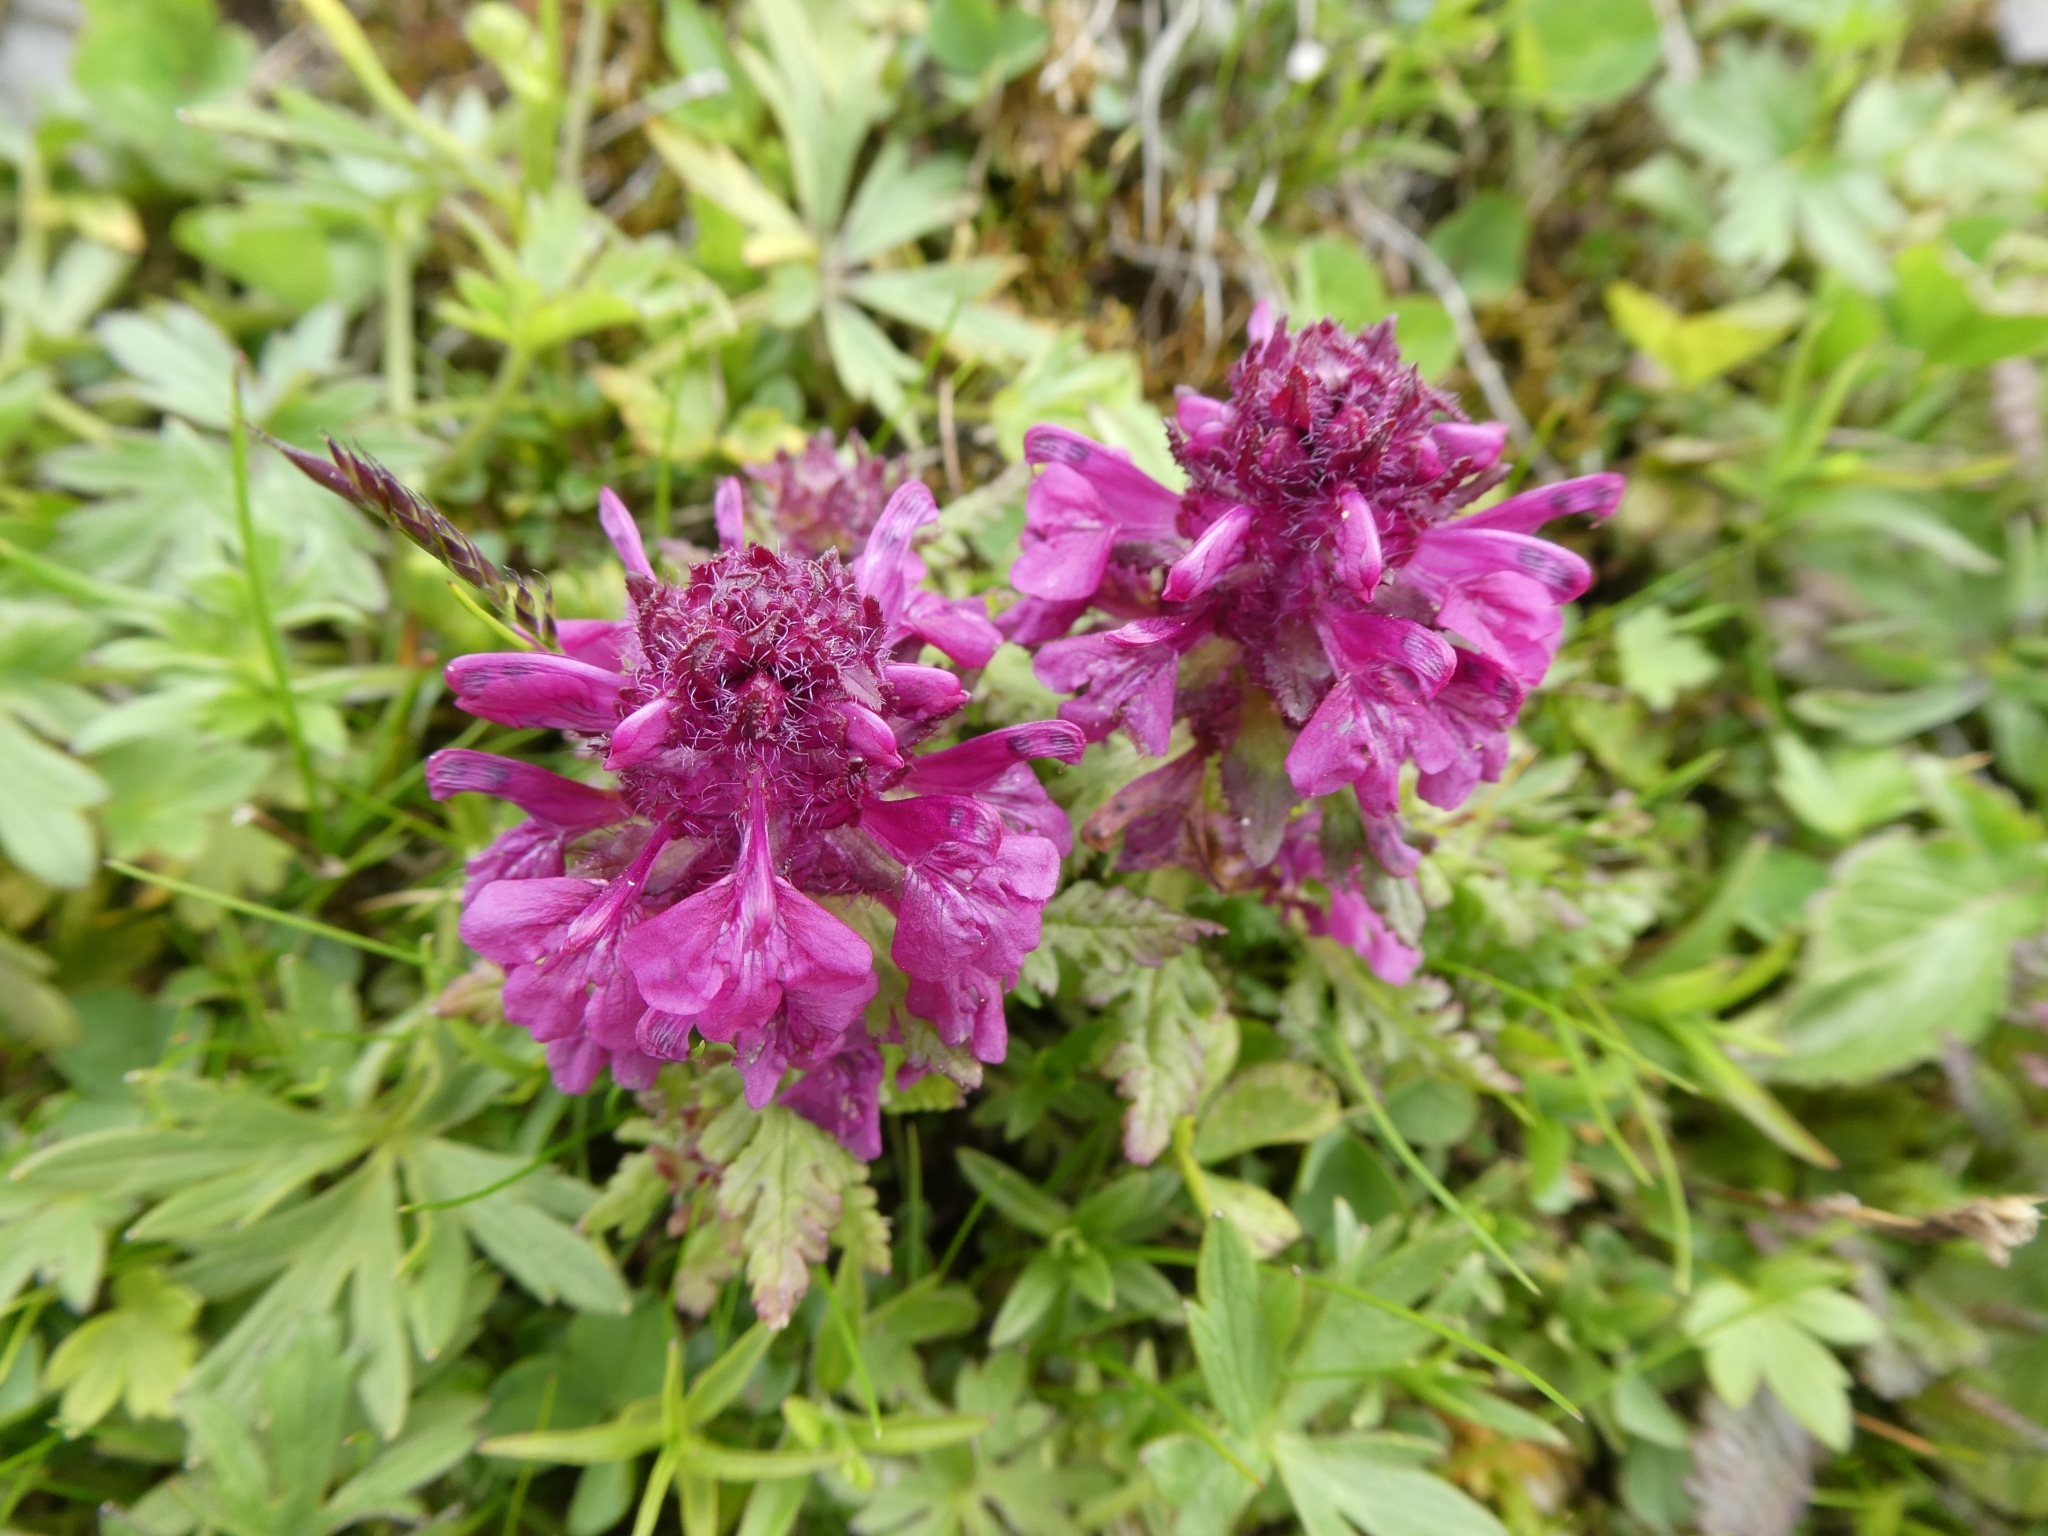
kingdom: Plantae
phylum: Tracheophyta
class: Magnoliopsida
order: Lamiales
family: Orobanchaceae
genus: Pedicularis
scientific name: Pedicularis verticillata
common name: Whorled lousewort
